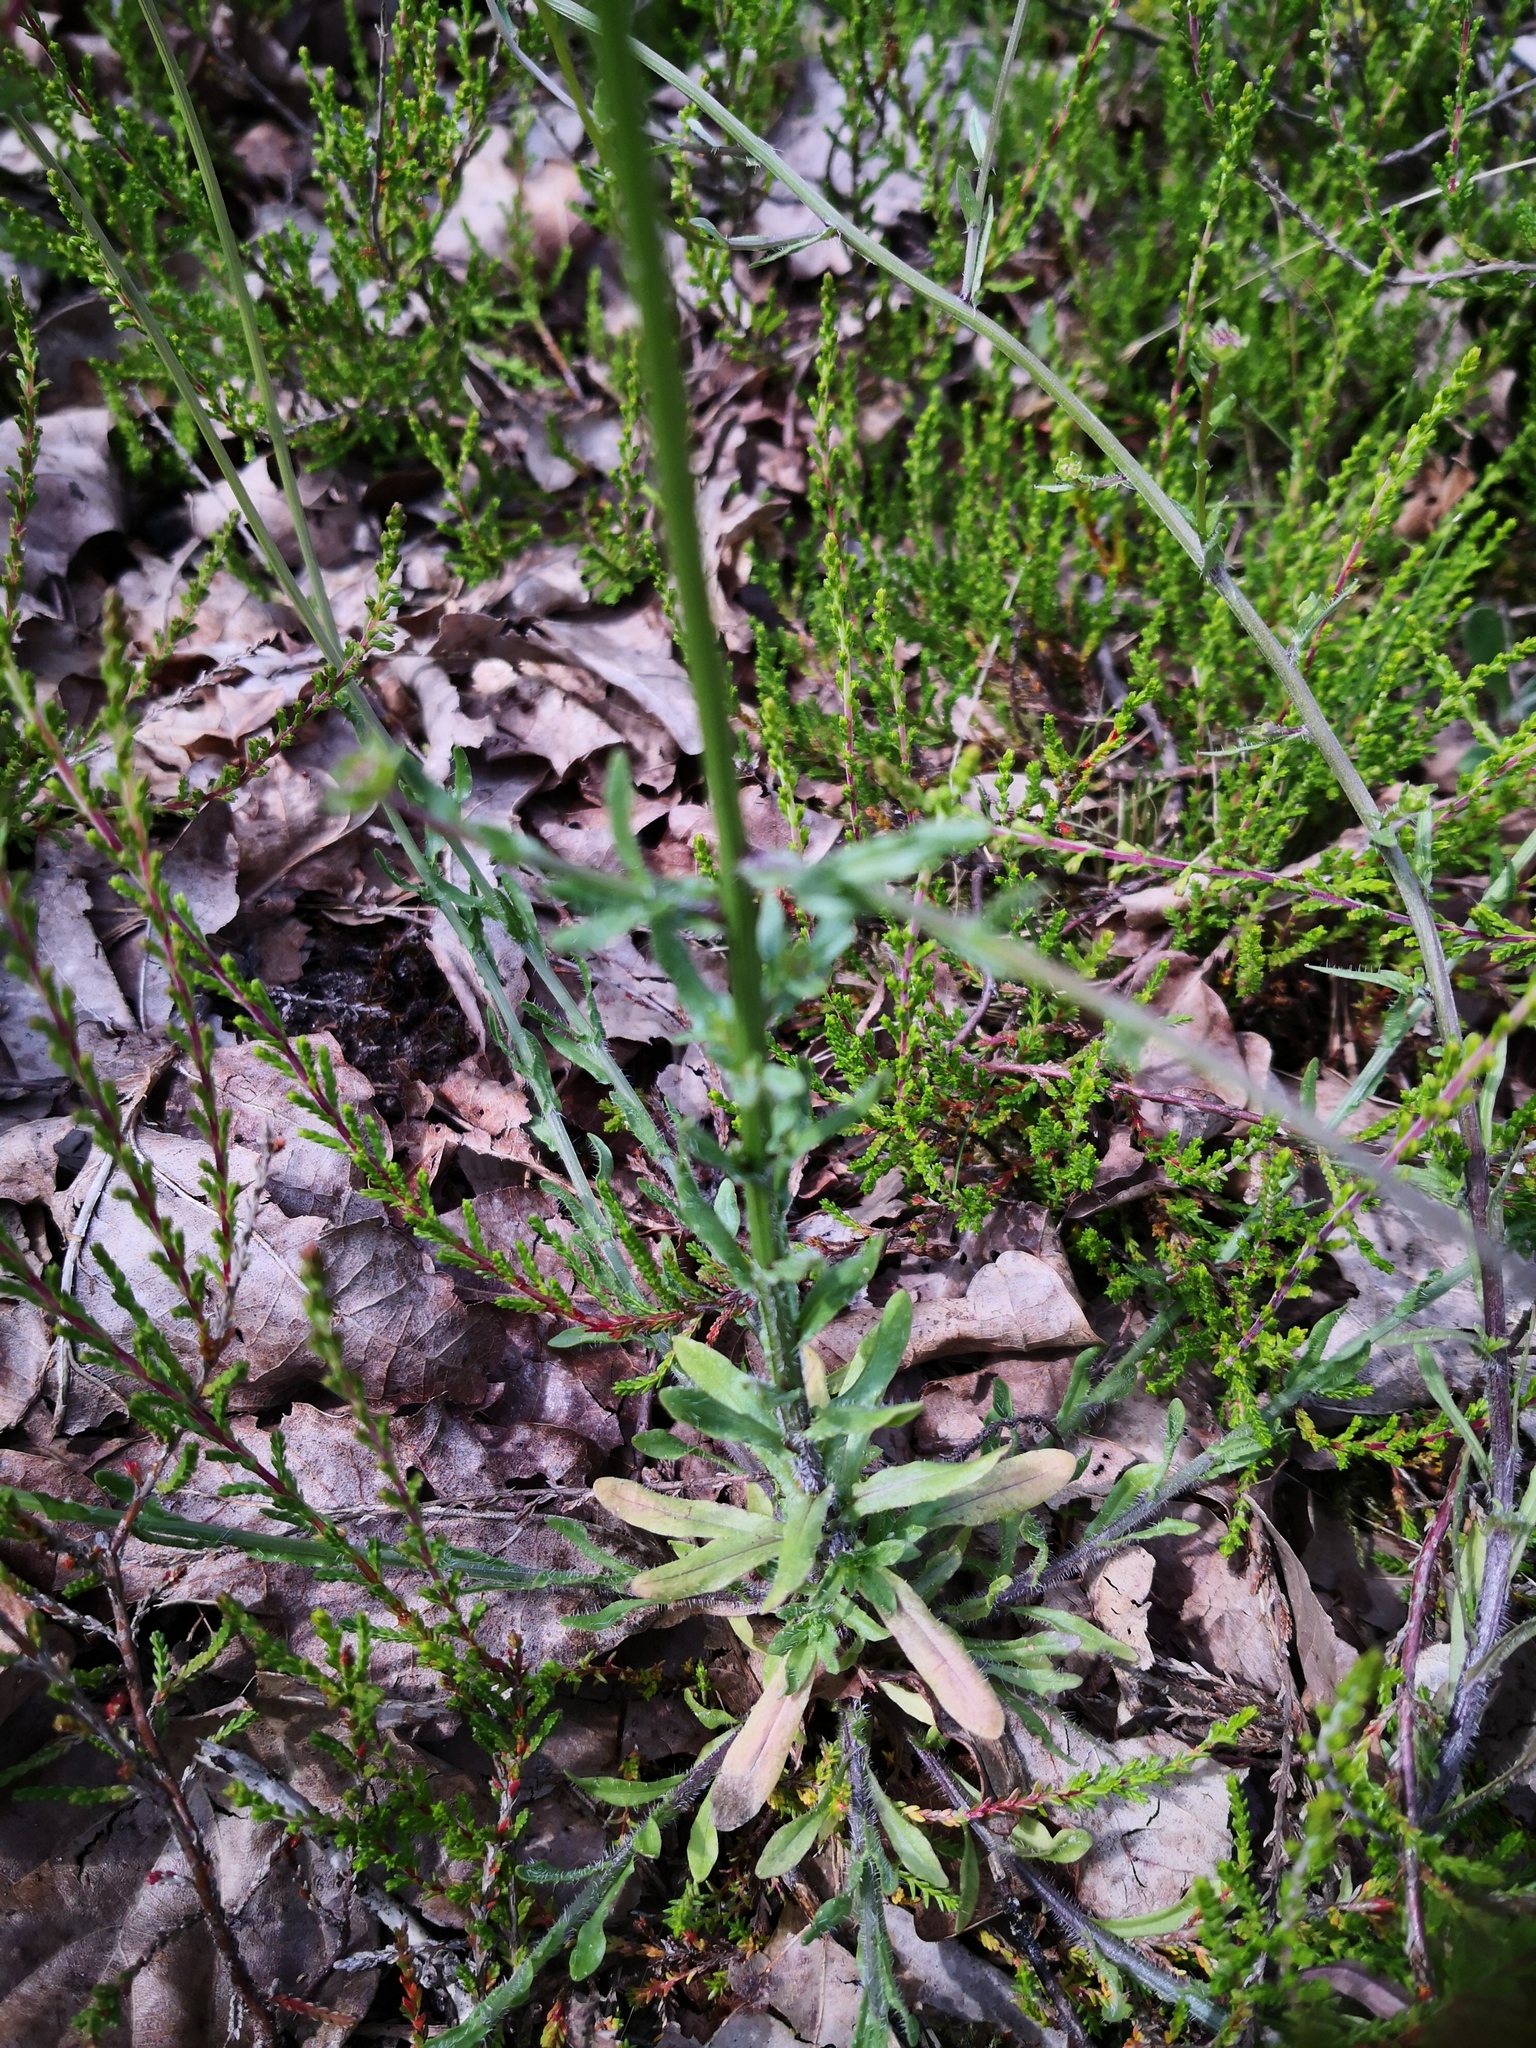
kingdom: Plantae
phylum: Tracheophyta
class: Magnoliopsida
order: Asterales
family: Campanulaceae
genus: Jasione
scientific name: Jasione montana
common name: Sheep's-bit
